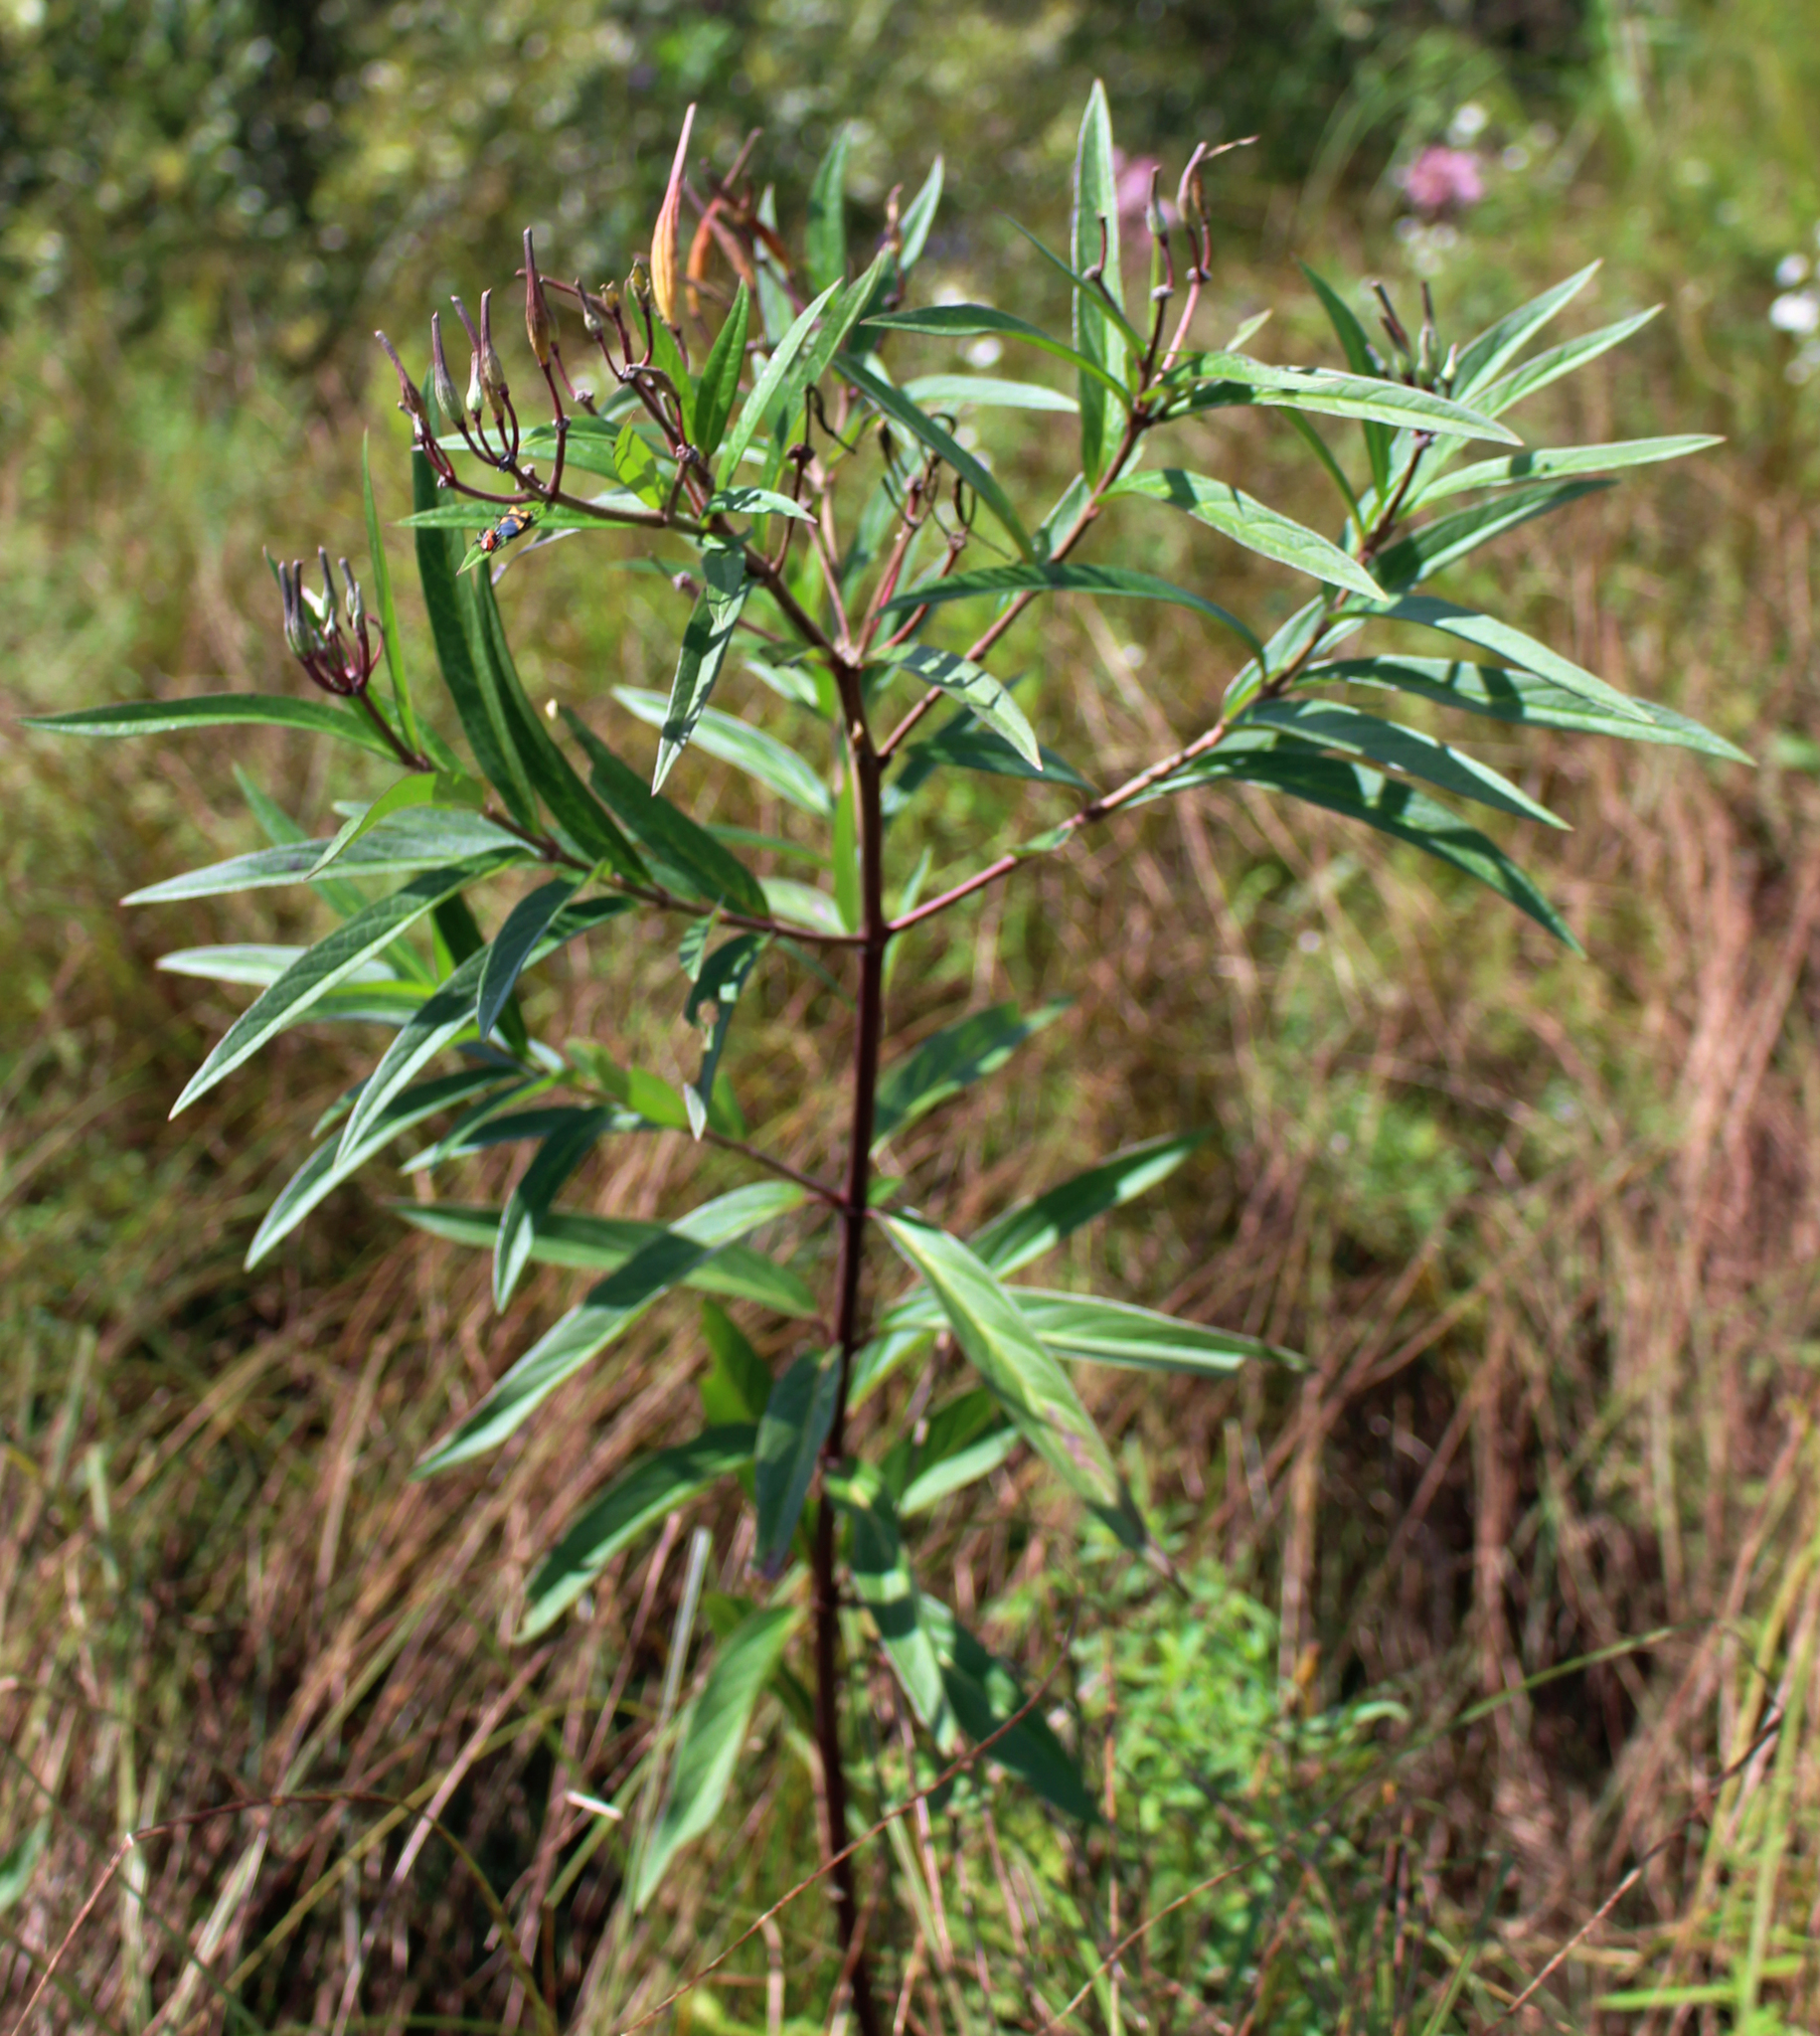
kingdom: Plantae
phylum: Tracheophyta
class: Magnoliopsida
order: Gentianales
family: Apocynaceae
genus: Asclepias
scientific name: Asclepias incarnata
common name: Swamp milkweed
